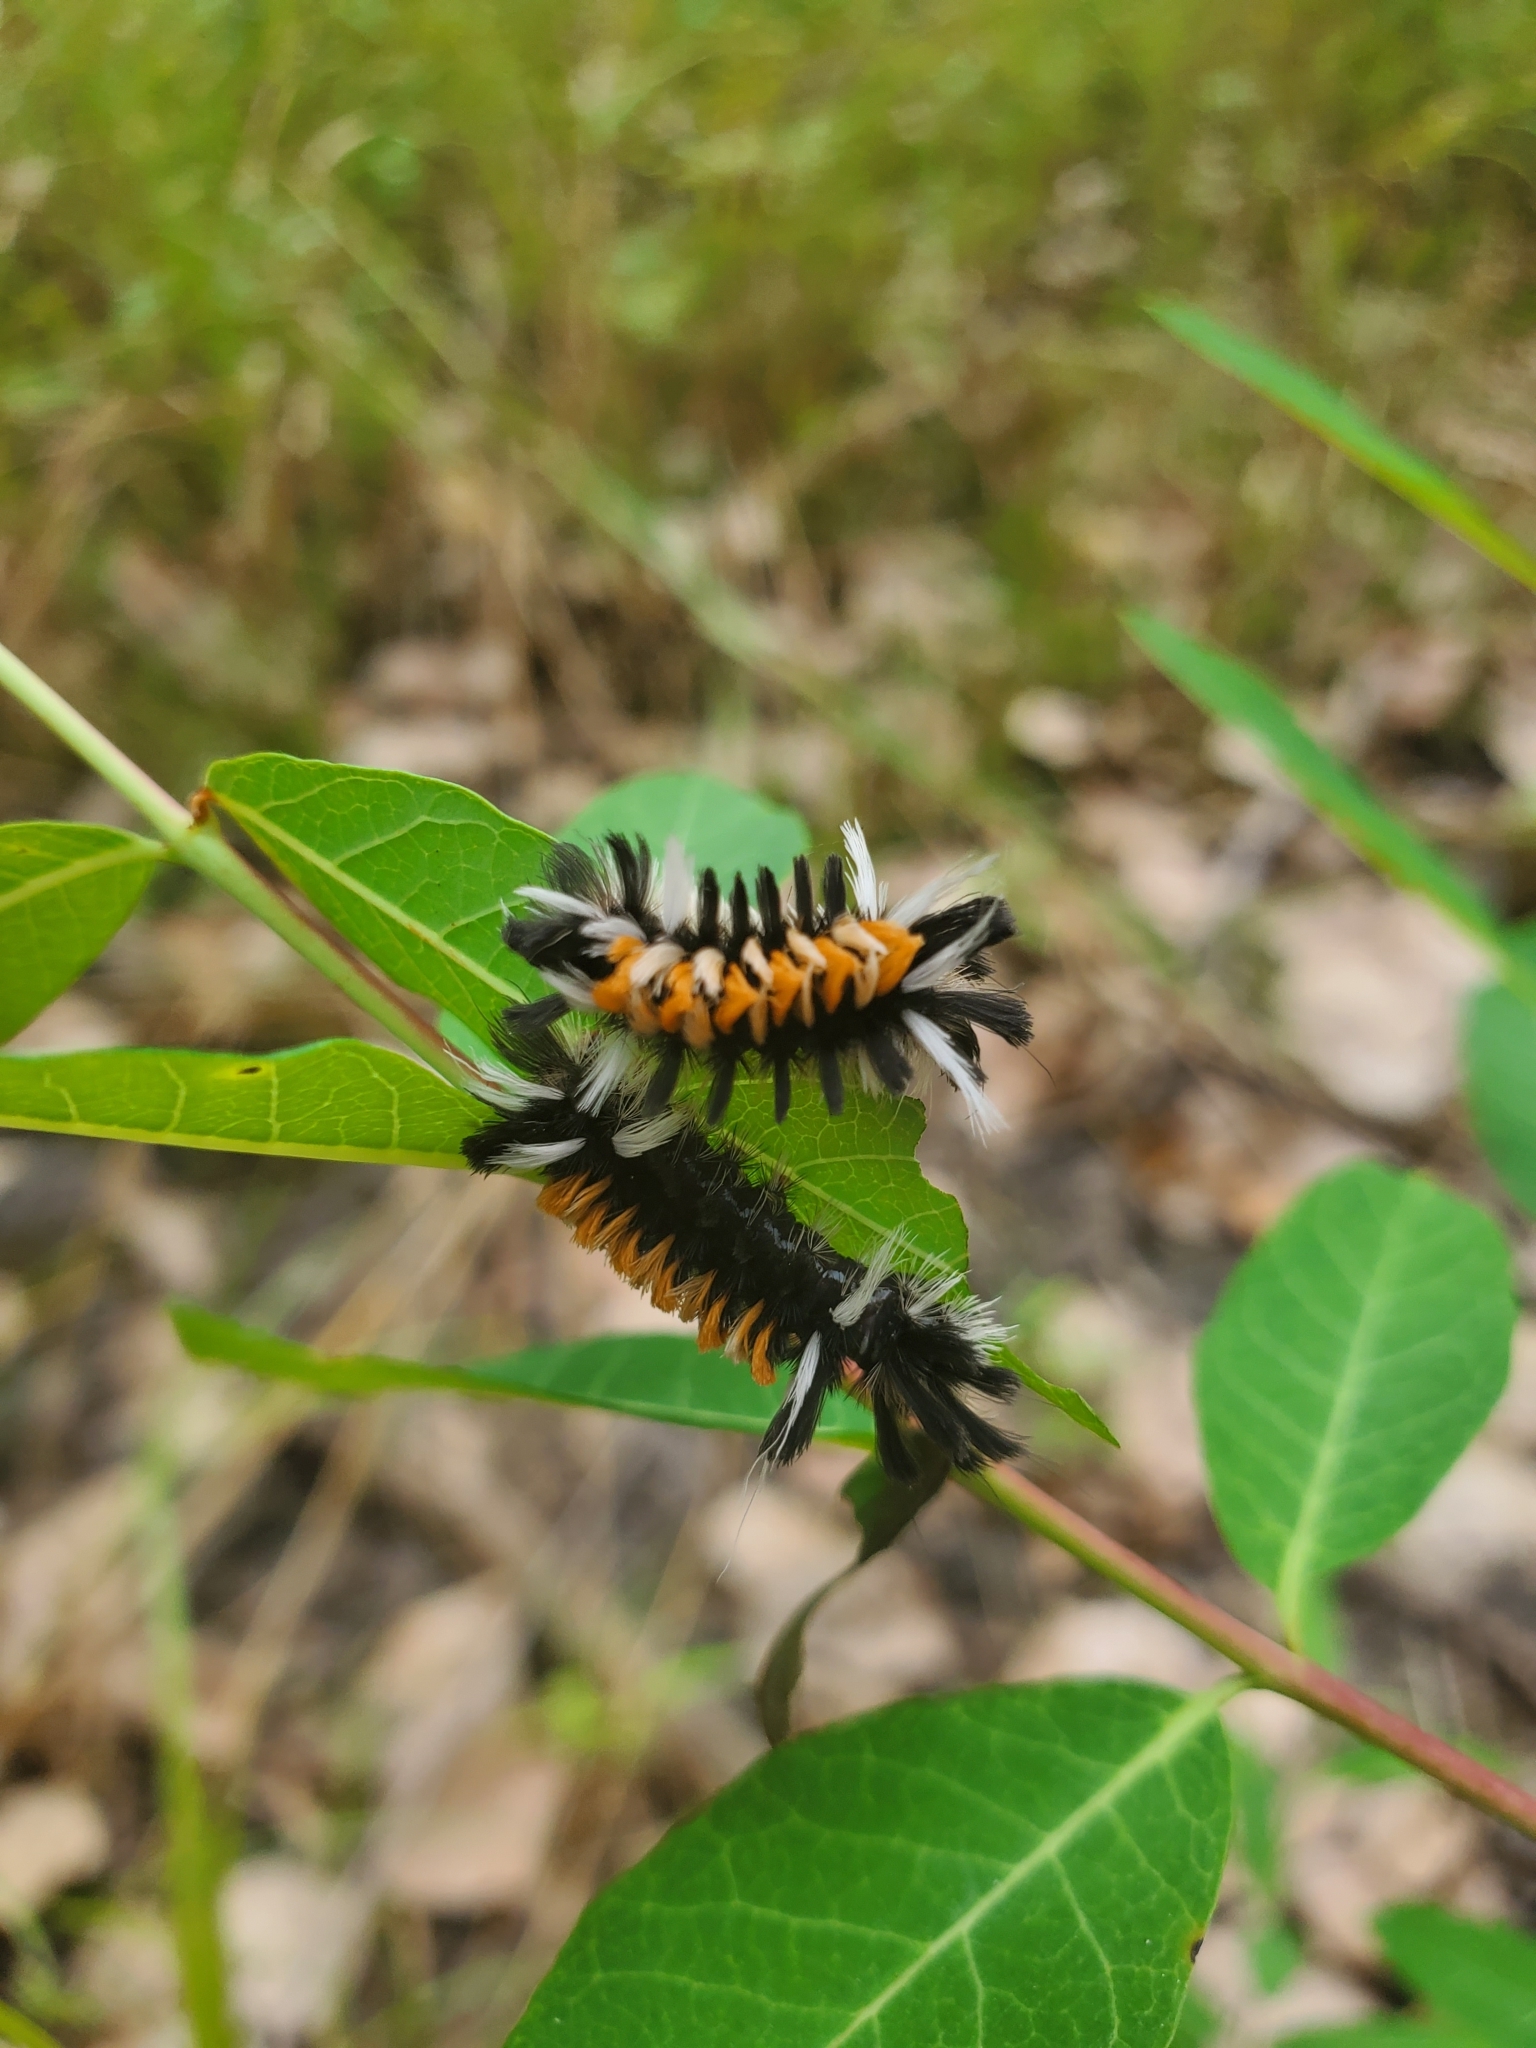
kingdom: Animalia
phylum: Arthropoda
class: Insecta
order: Lepidoptera
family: Erebidae
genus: Euchaetes
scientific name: Euchaetes egle
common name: Milkweed tussock moth
